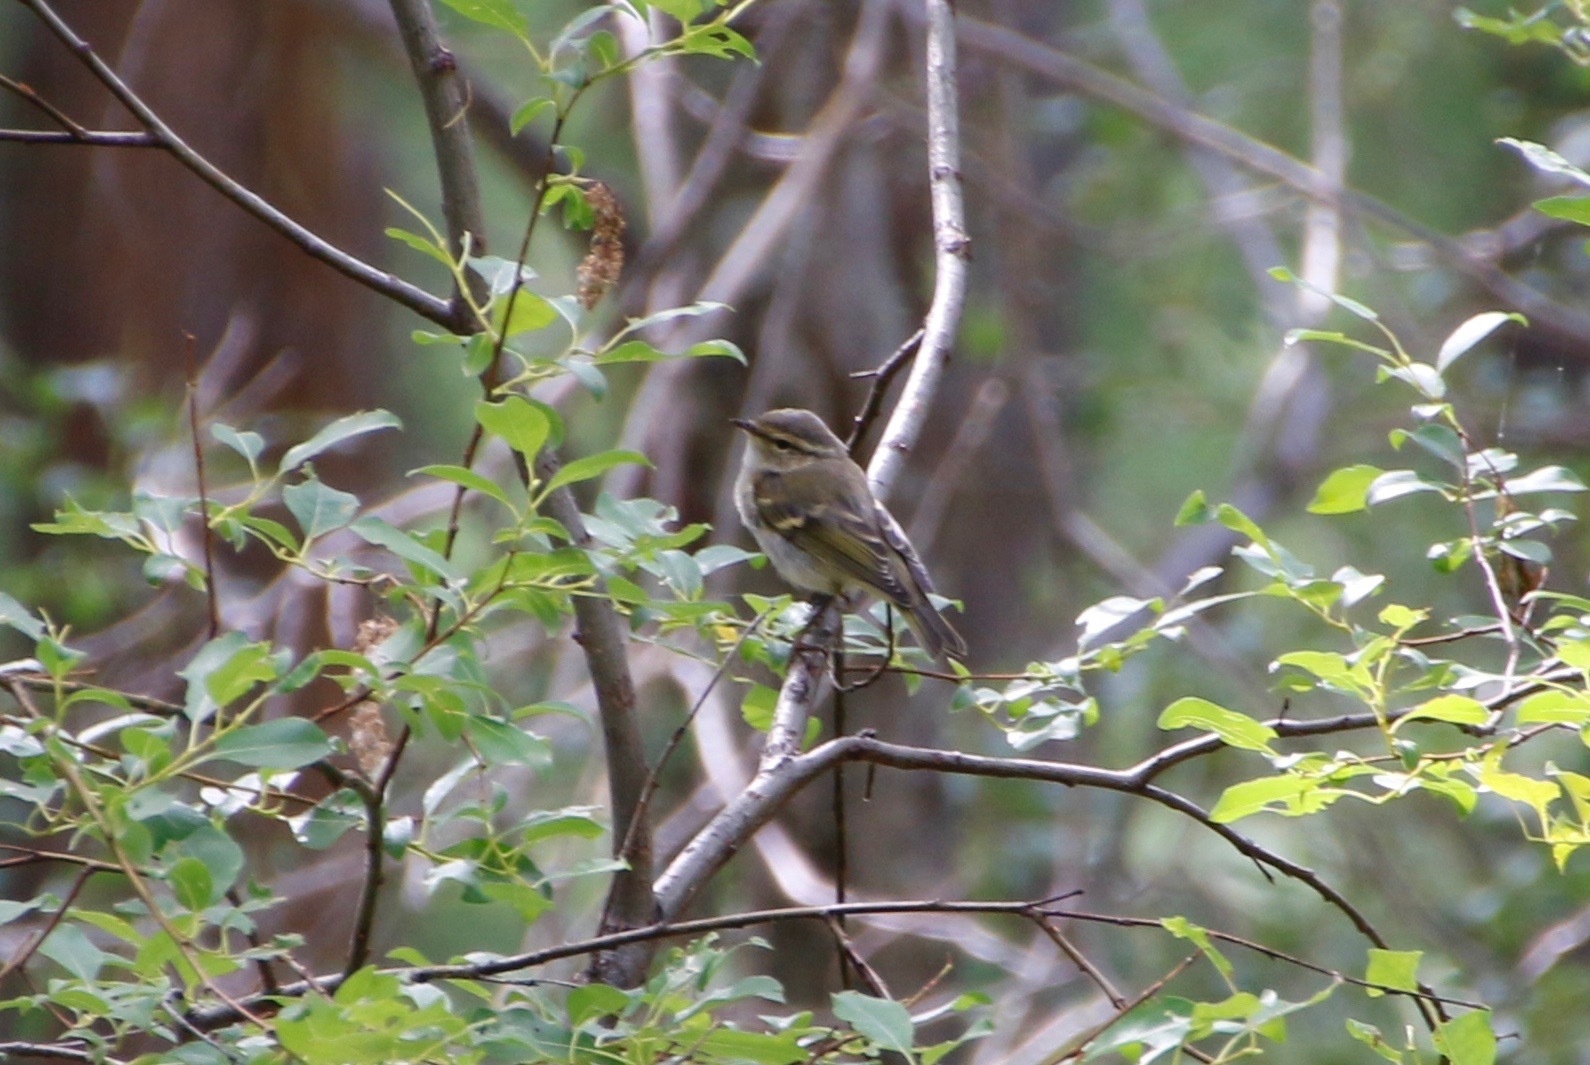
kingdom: Animalia
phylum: Chordata
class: Aves
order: Passeriformes
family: Phylloscopidae
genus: Phylloscopus
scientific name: Phylloscopus humei
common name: Hume's leaf warbler
